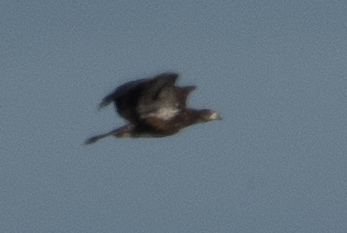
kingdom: Animalia
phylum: Chordata
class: Aves
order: Accipitriformes
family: Accipitridae
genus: Haliaeetus
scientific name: Haliaeetus leucocephalus
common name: Bald eagle
